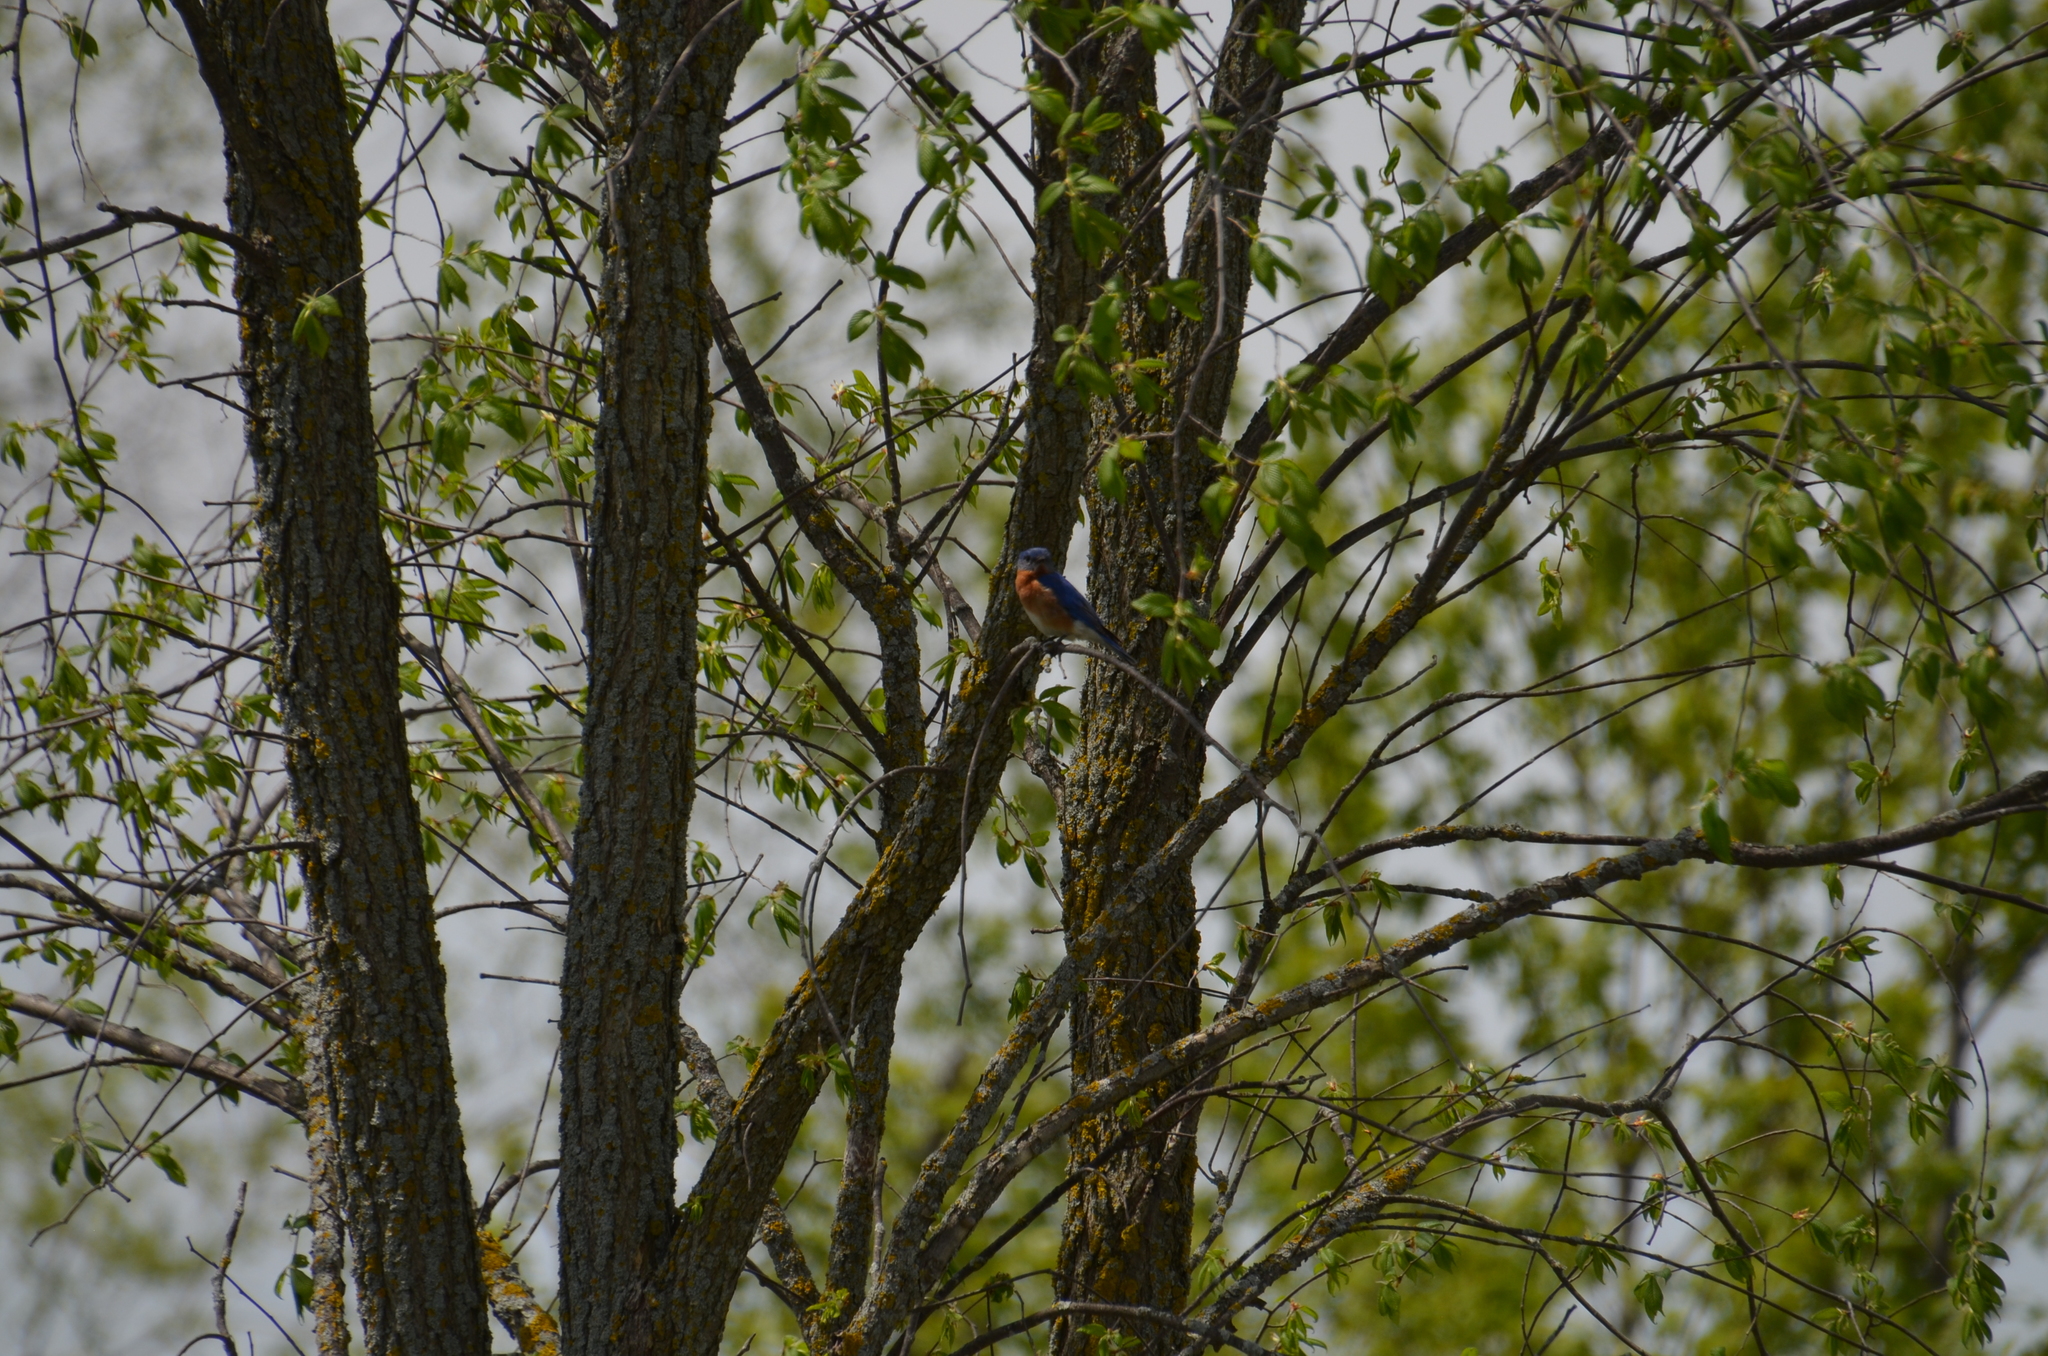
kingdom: Animalia
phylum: Chordata
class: Aves
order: Passeriformes
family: Turdidae
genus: Sialia
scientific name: Sialia sialis
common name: Eastern bluebird
